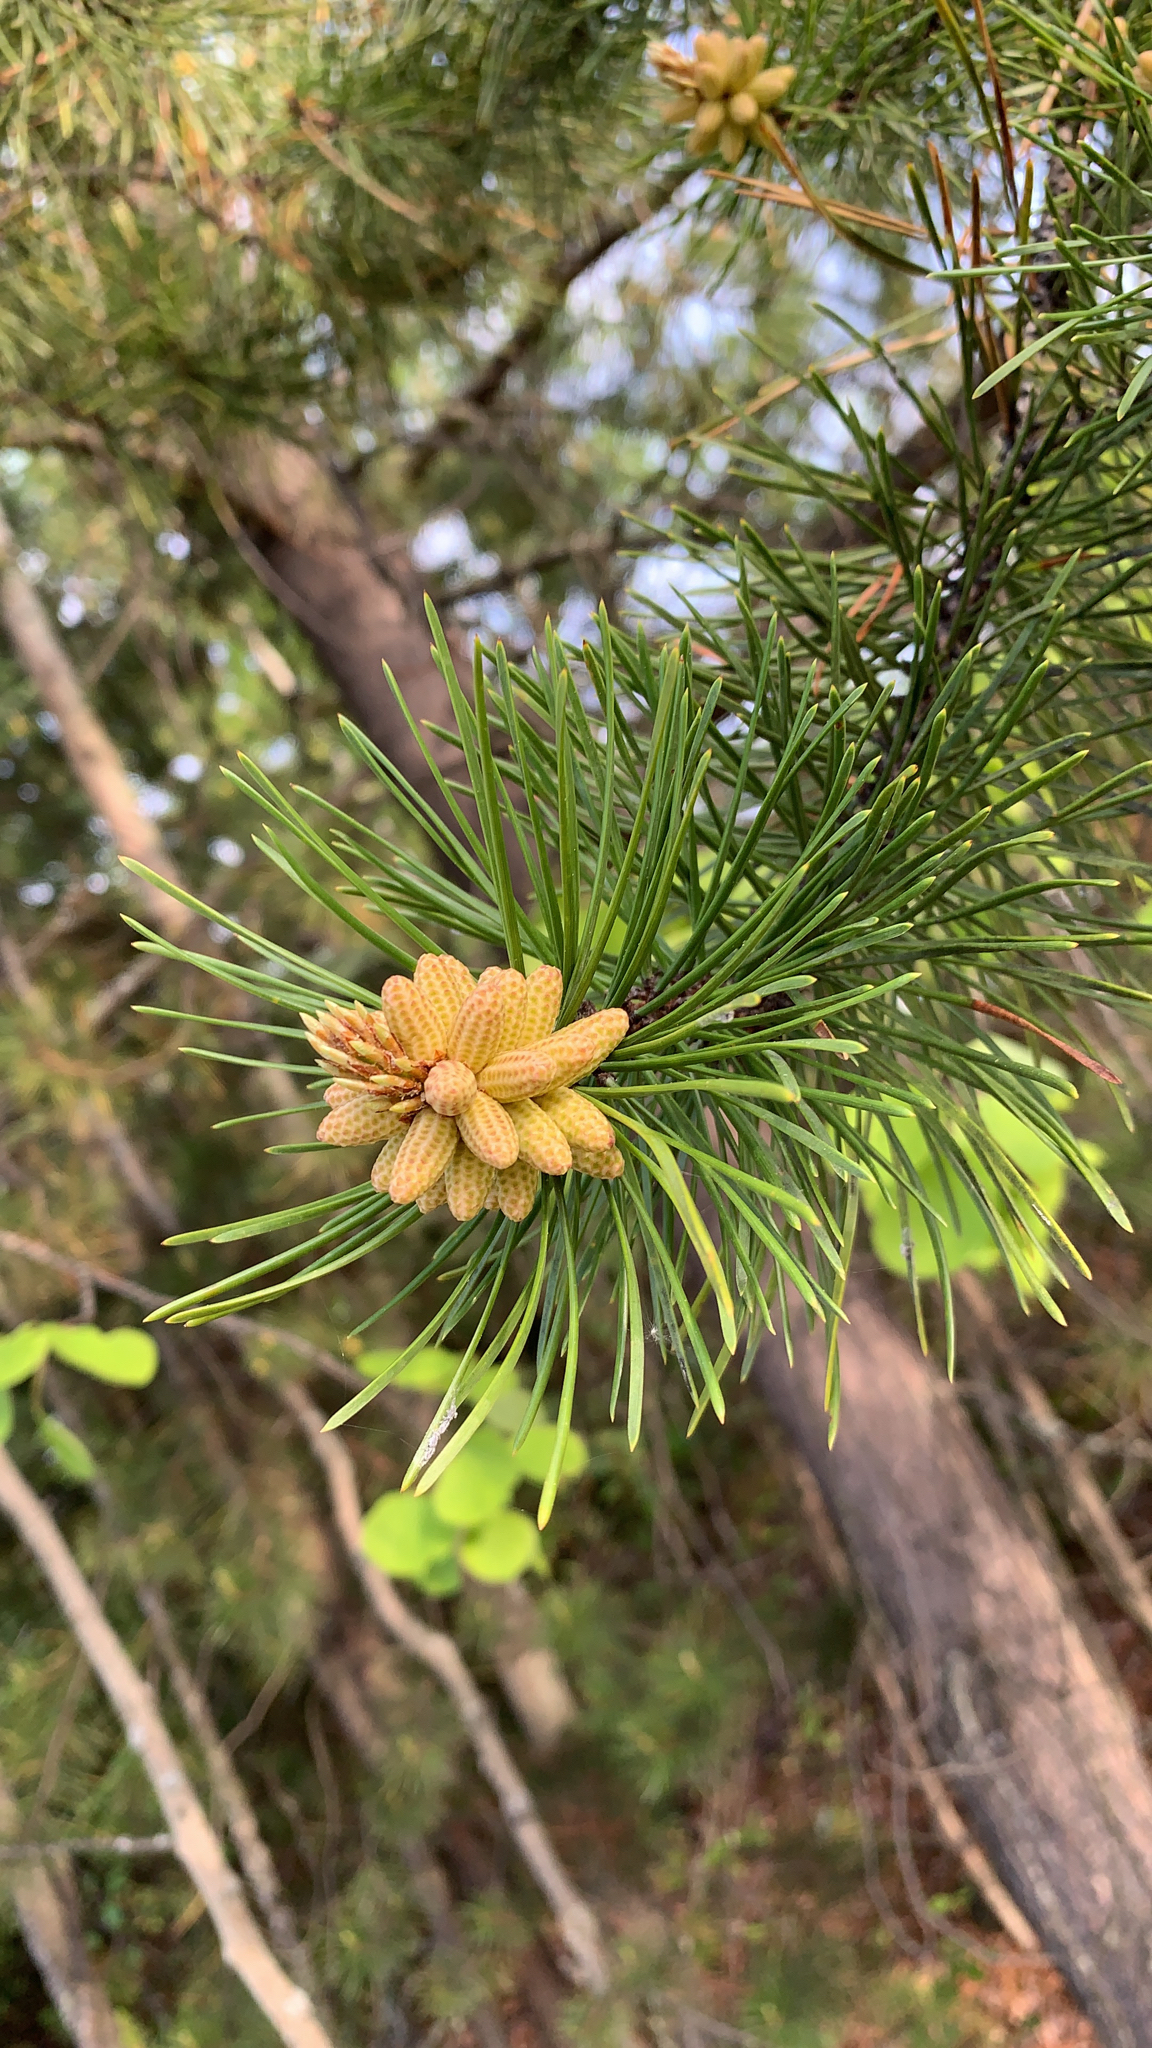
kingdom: Plantae
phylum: Tracheophyta
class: Pinopsida
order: Pinales
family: Pinaceae
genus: Pinus
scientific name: Pinus contorta
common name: Lodgepole pine
